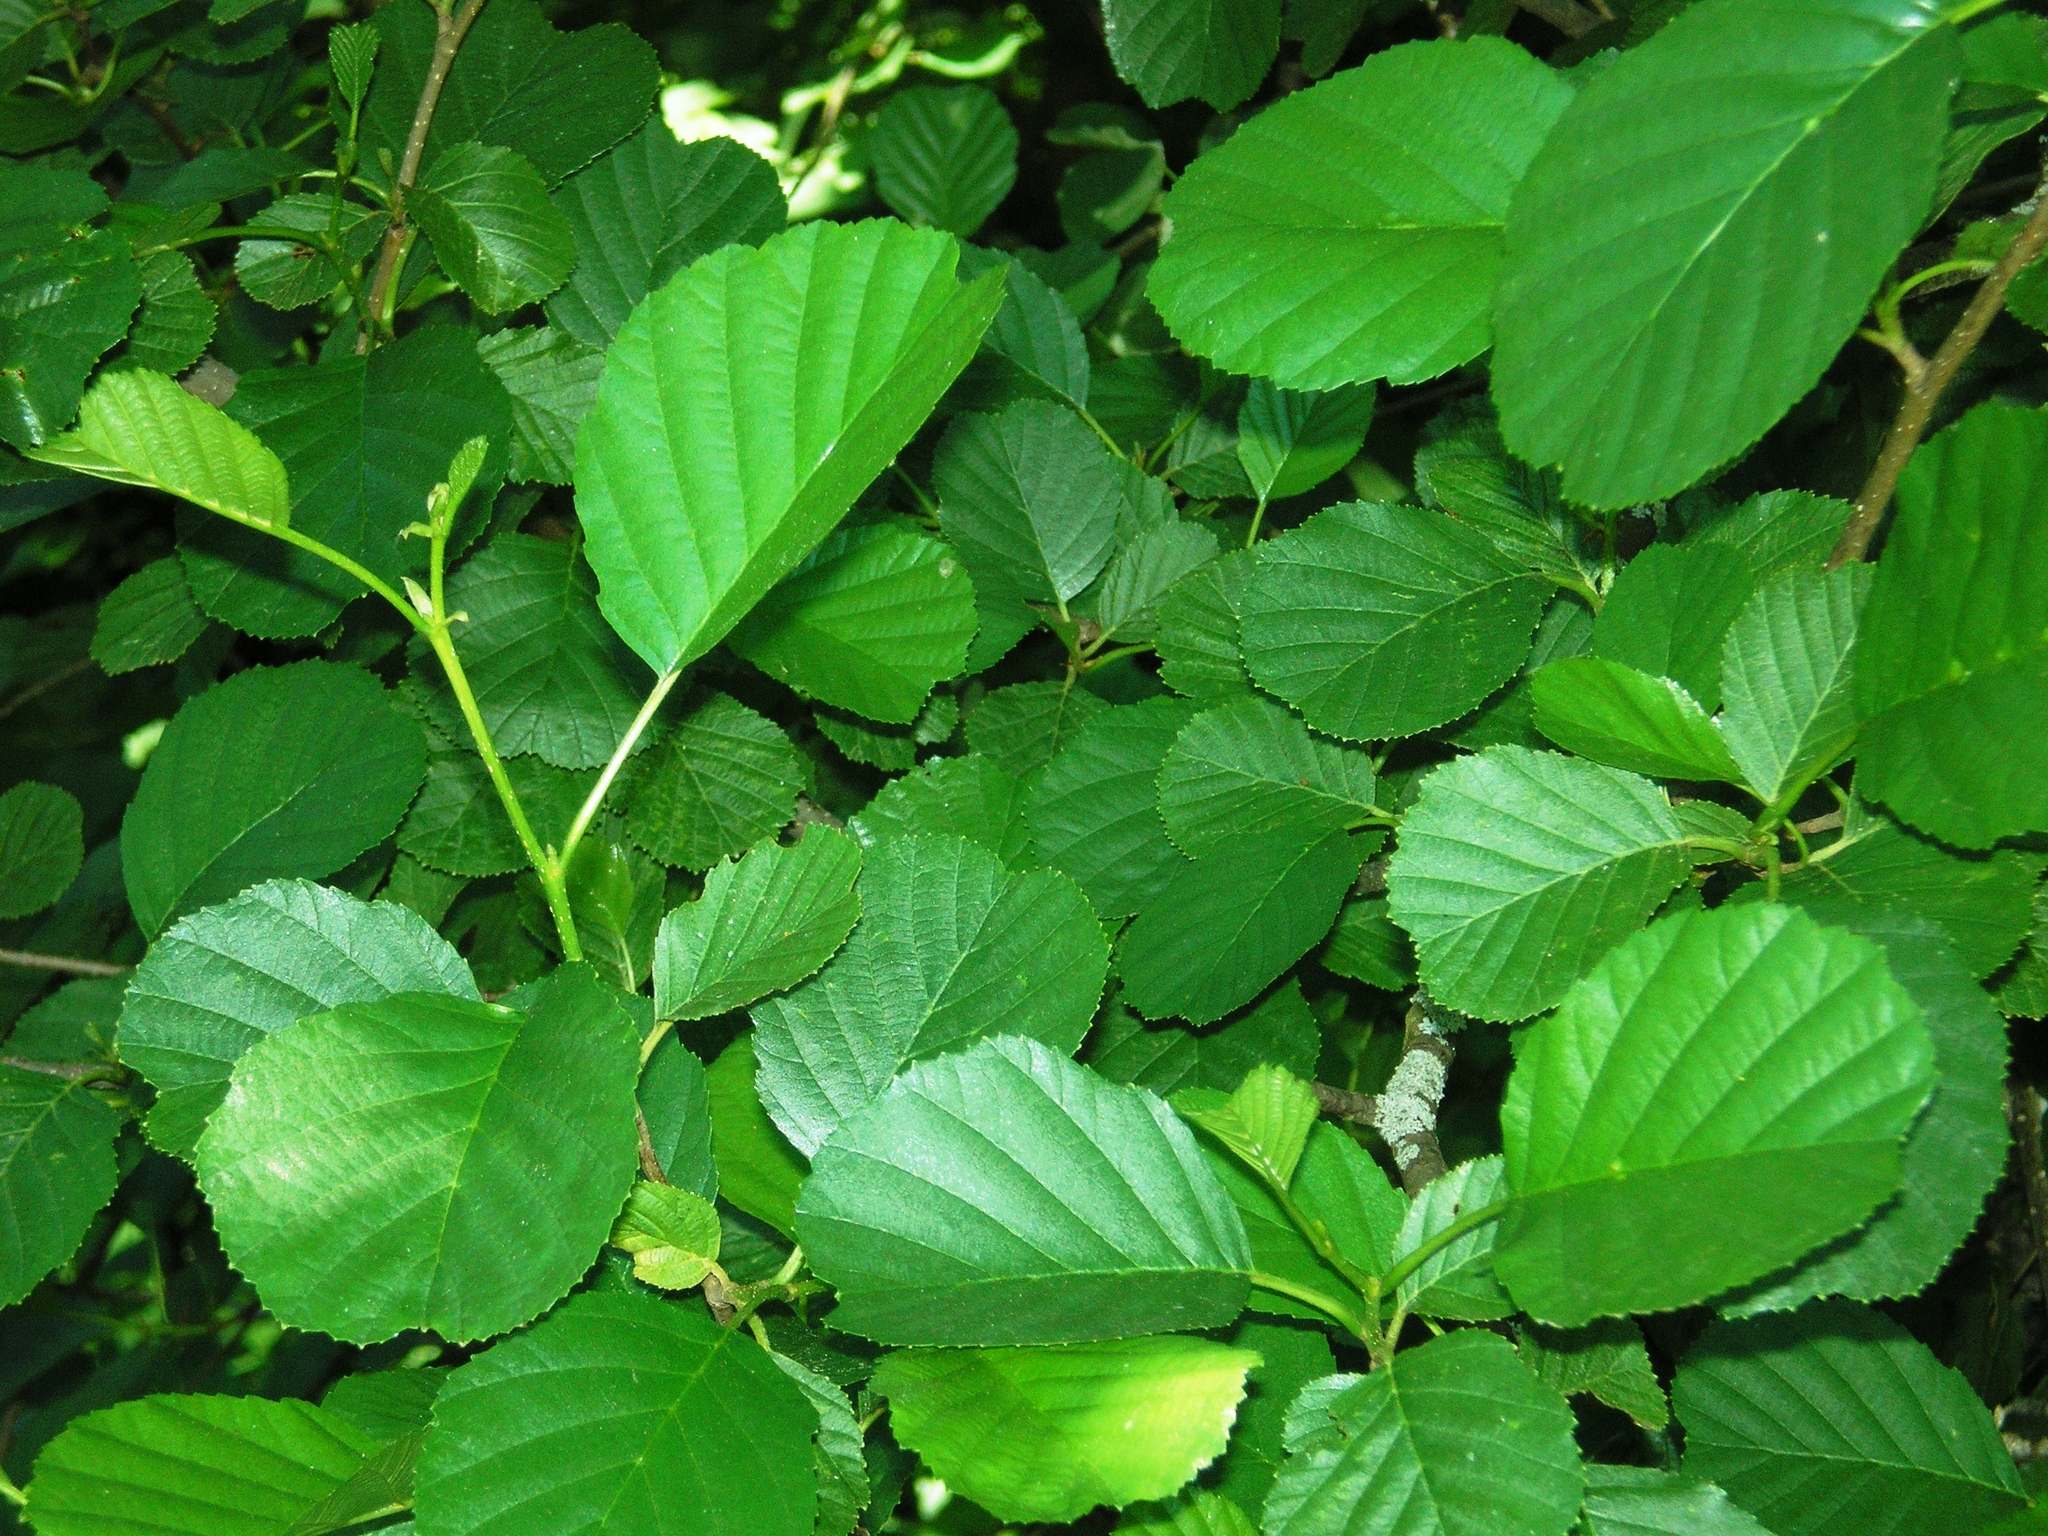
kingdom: Plantae
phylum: Tracheophyta
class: Magnoliopsida
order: Fagales
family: Betulaceae
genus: Alnus
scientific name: Alnus glutinosa
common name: Black alder
